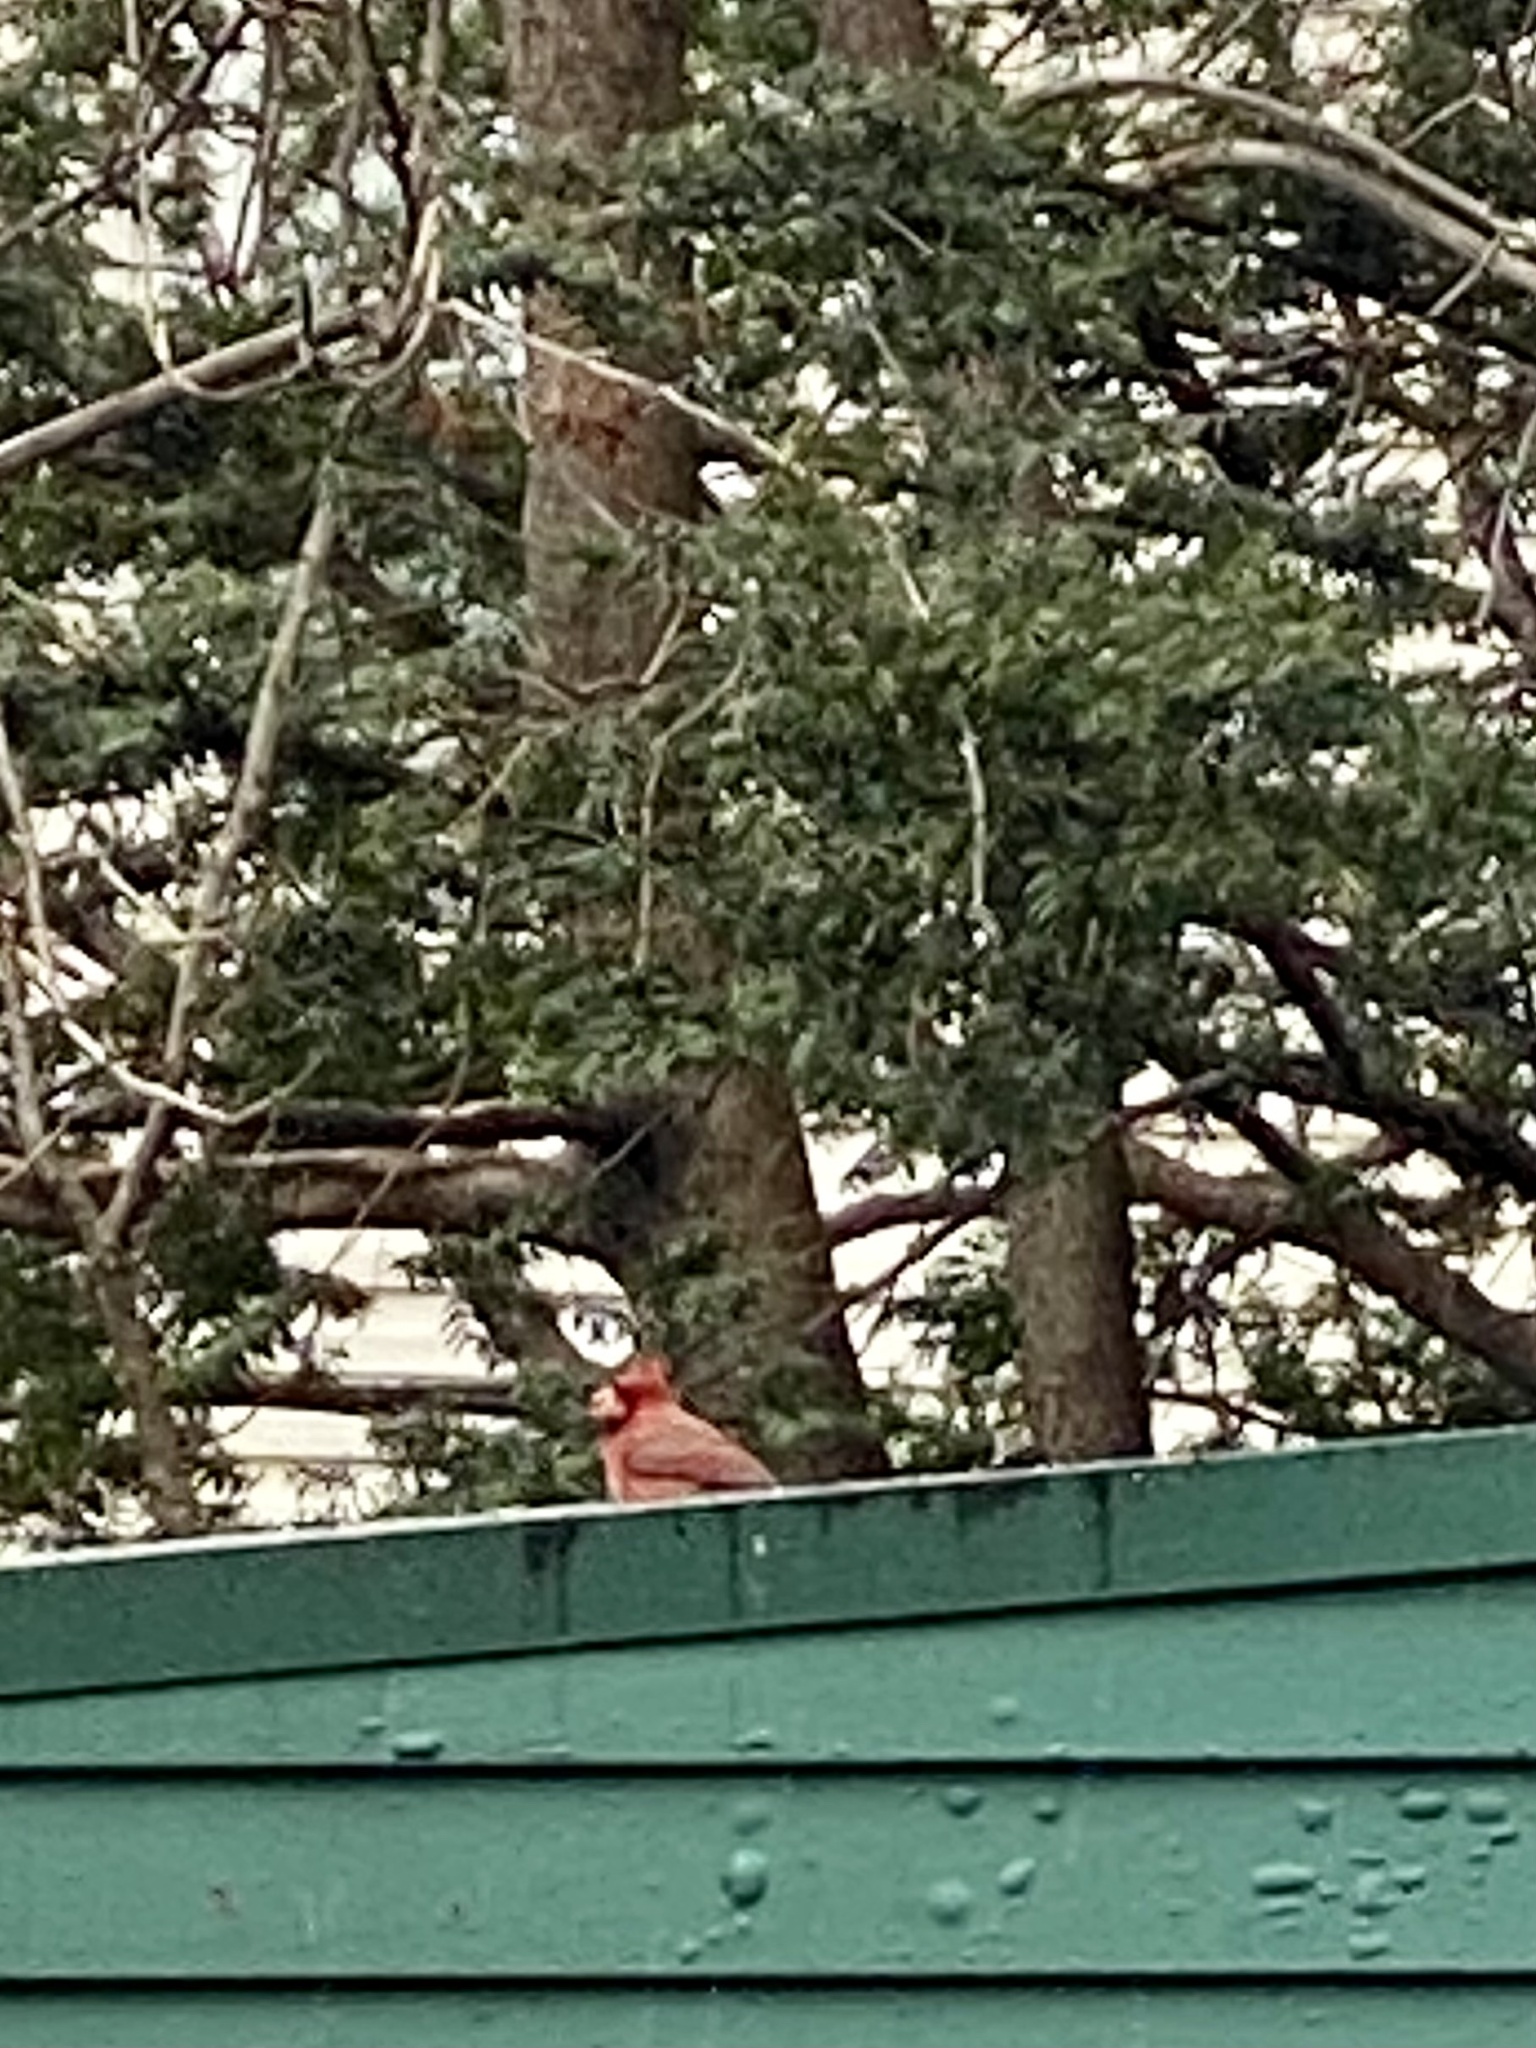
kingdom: Animalia
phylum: Chordata
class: Aves
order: Passeriformes
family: Cardinalidae
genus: Cardinalis
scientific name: Cardinalis cardinalis
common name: Northern cardinal
